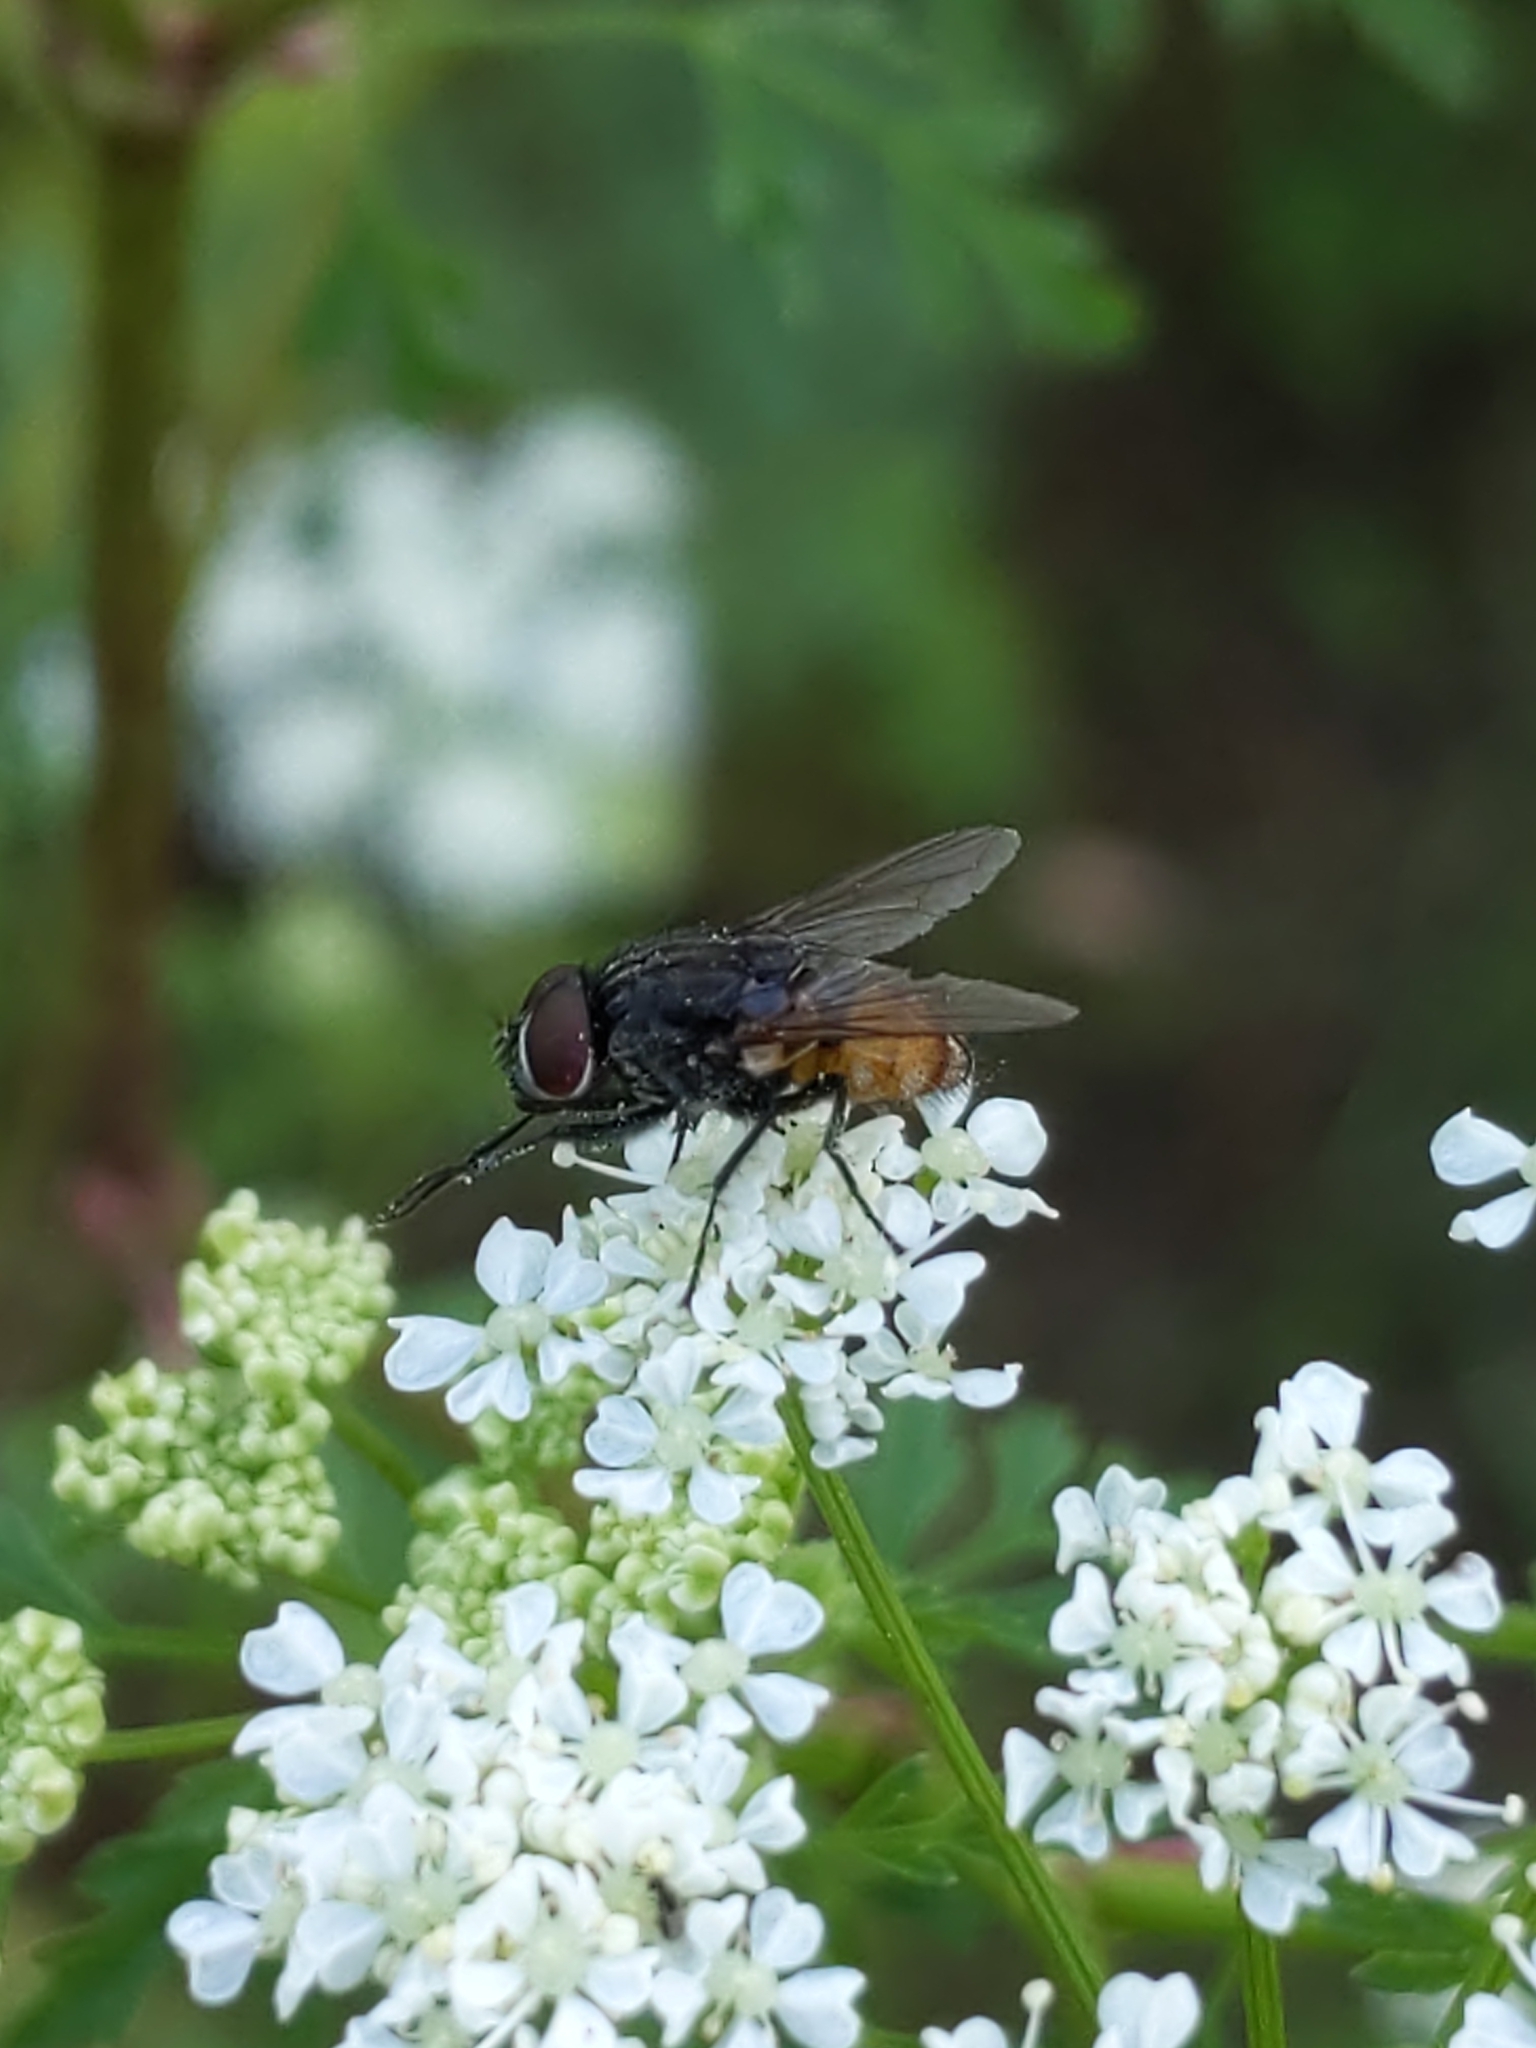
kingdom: Animalia
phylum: Arthropoda
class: Insecta
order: Diptera
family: Muscidae
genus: Musca
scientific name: Musca autumnalis
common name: Face fly
